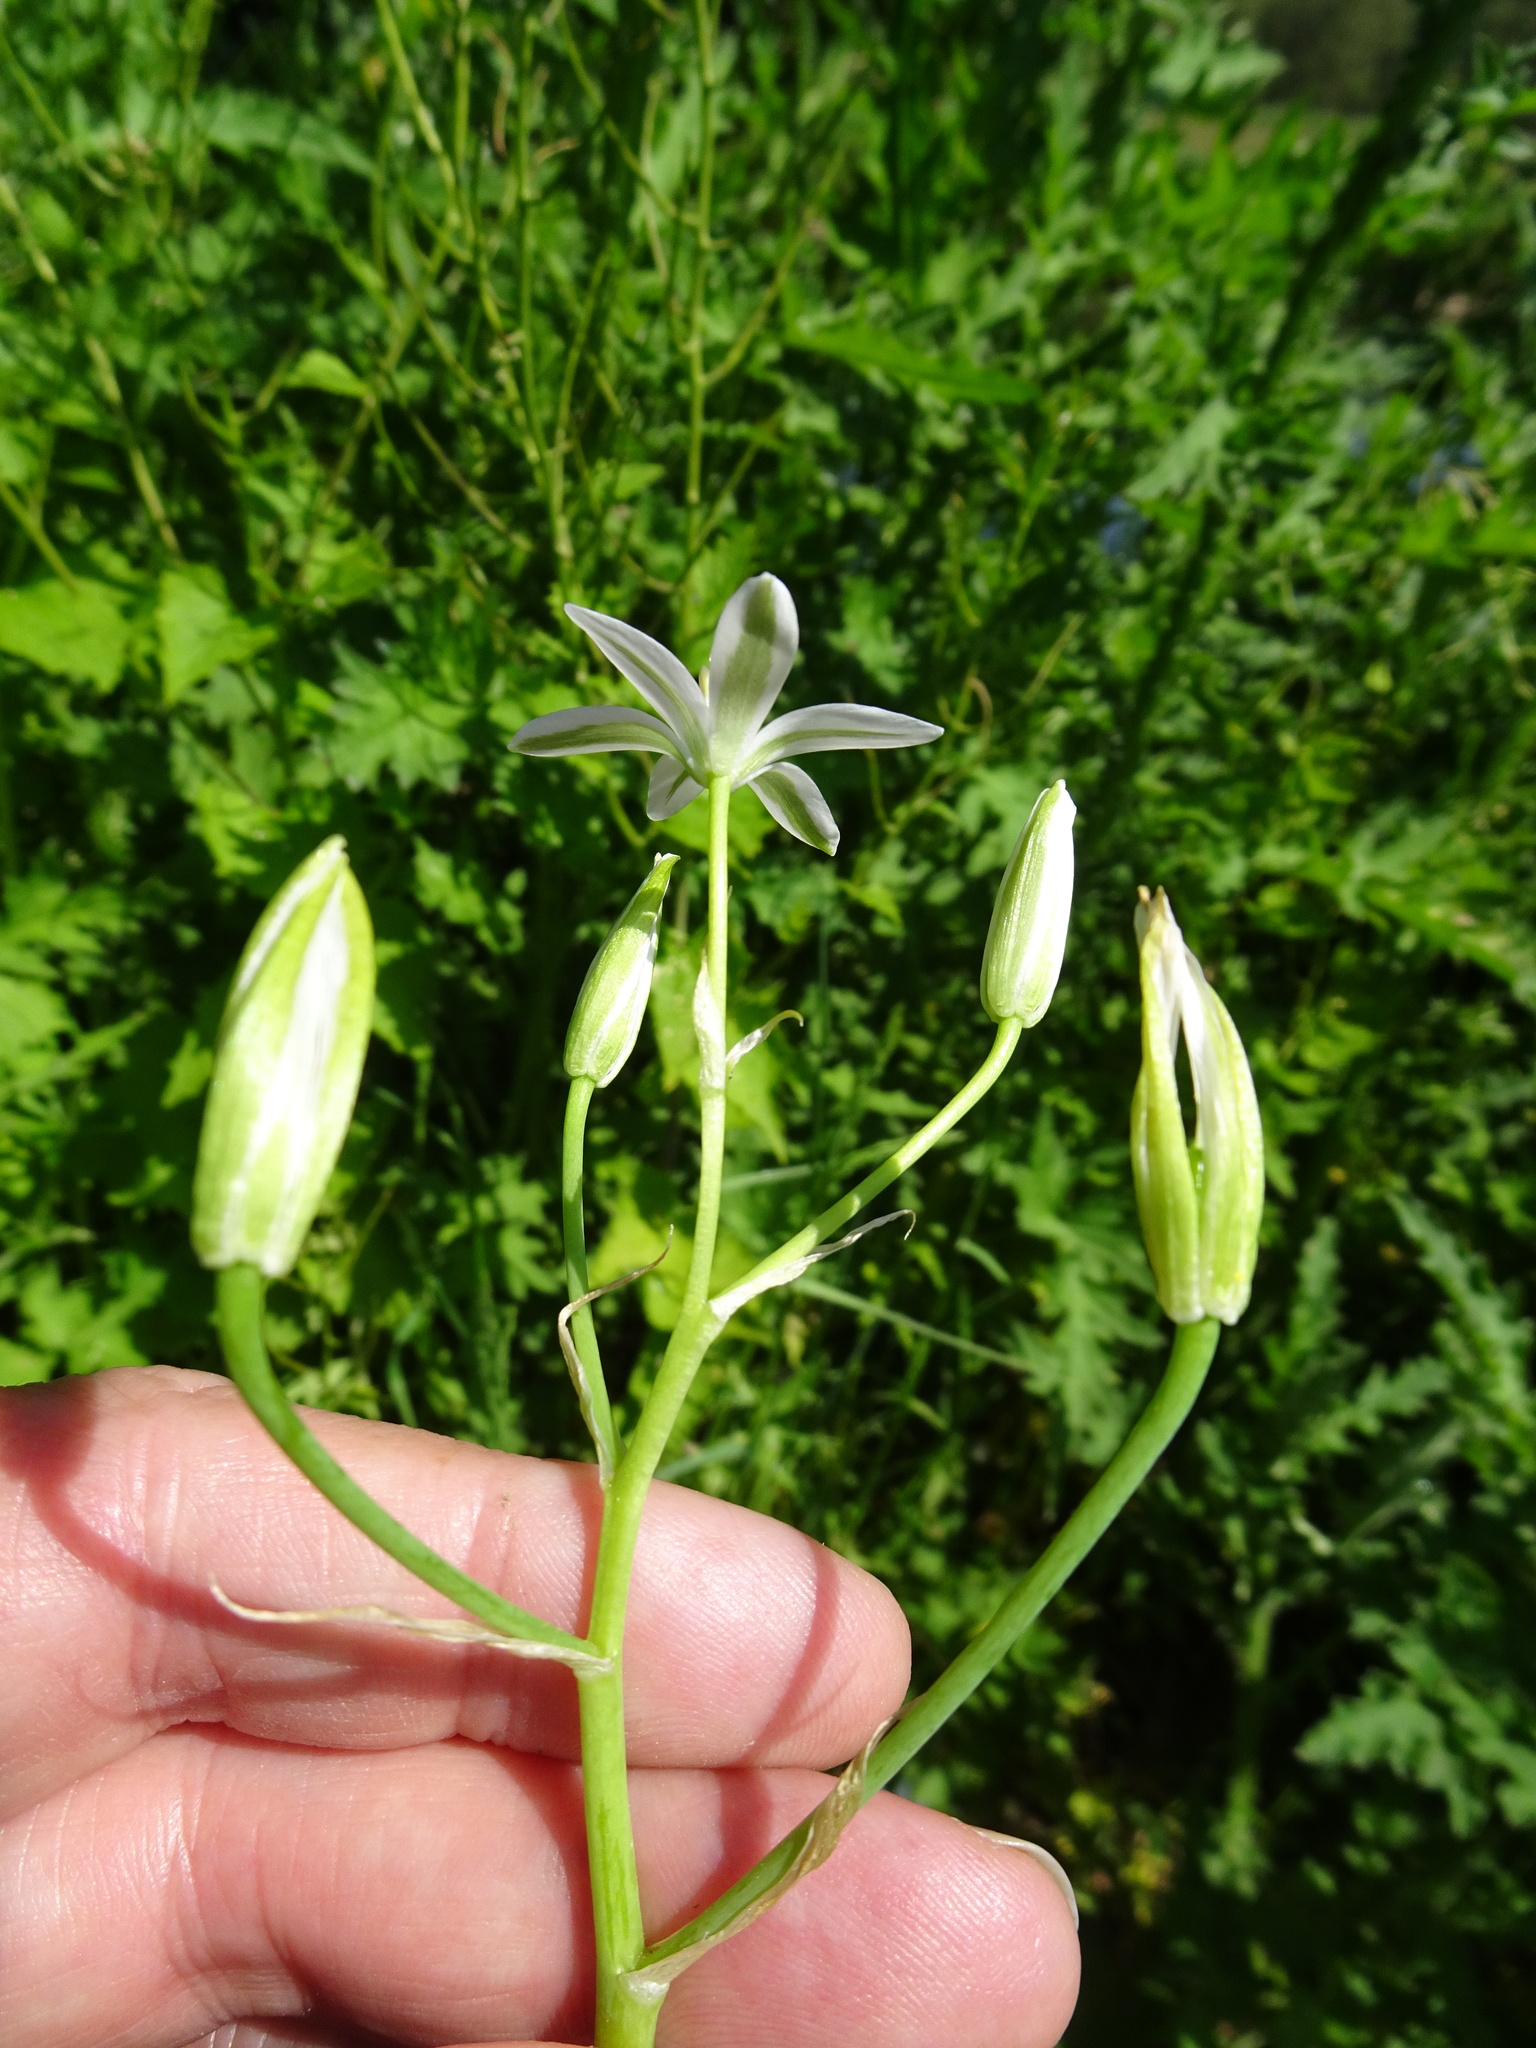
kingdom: Plantae
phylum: Tracheophyta
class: Liliopsida
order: Asparagales
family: Asparagaceae
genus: Ornithogalum
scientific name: Ornithogalum umbellatum
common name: Garden star-of-bethlehem
